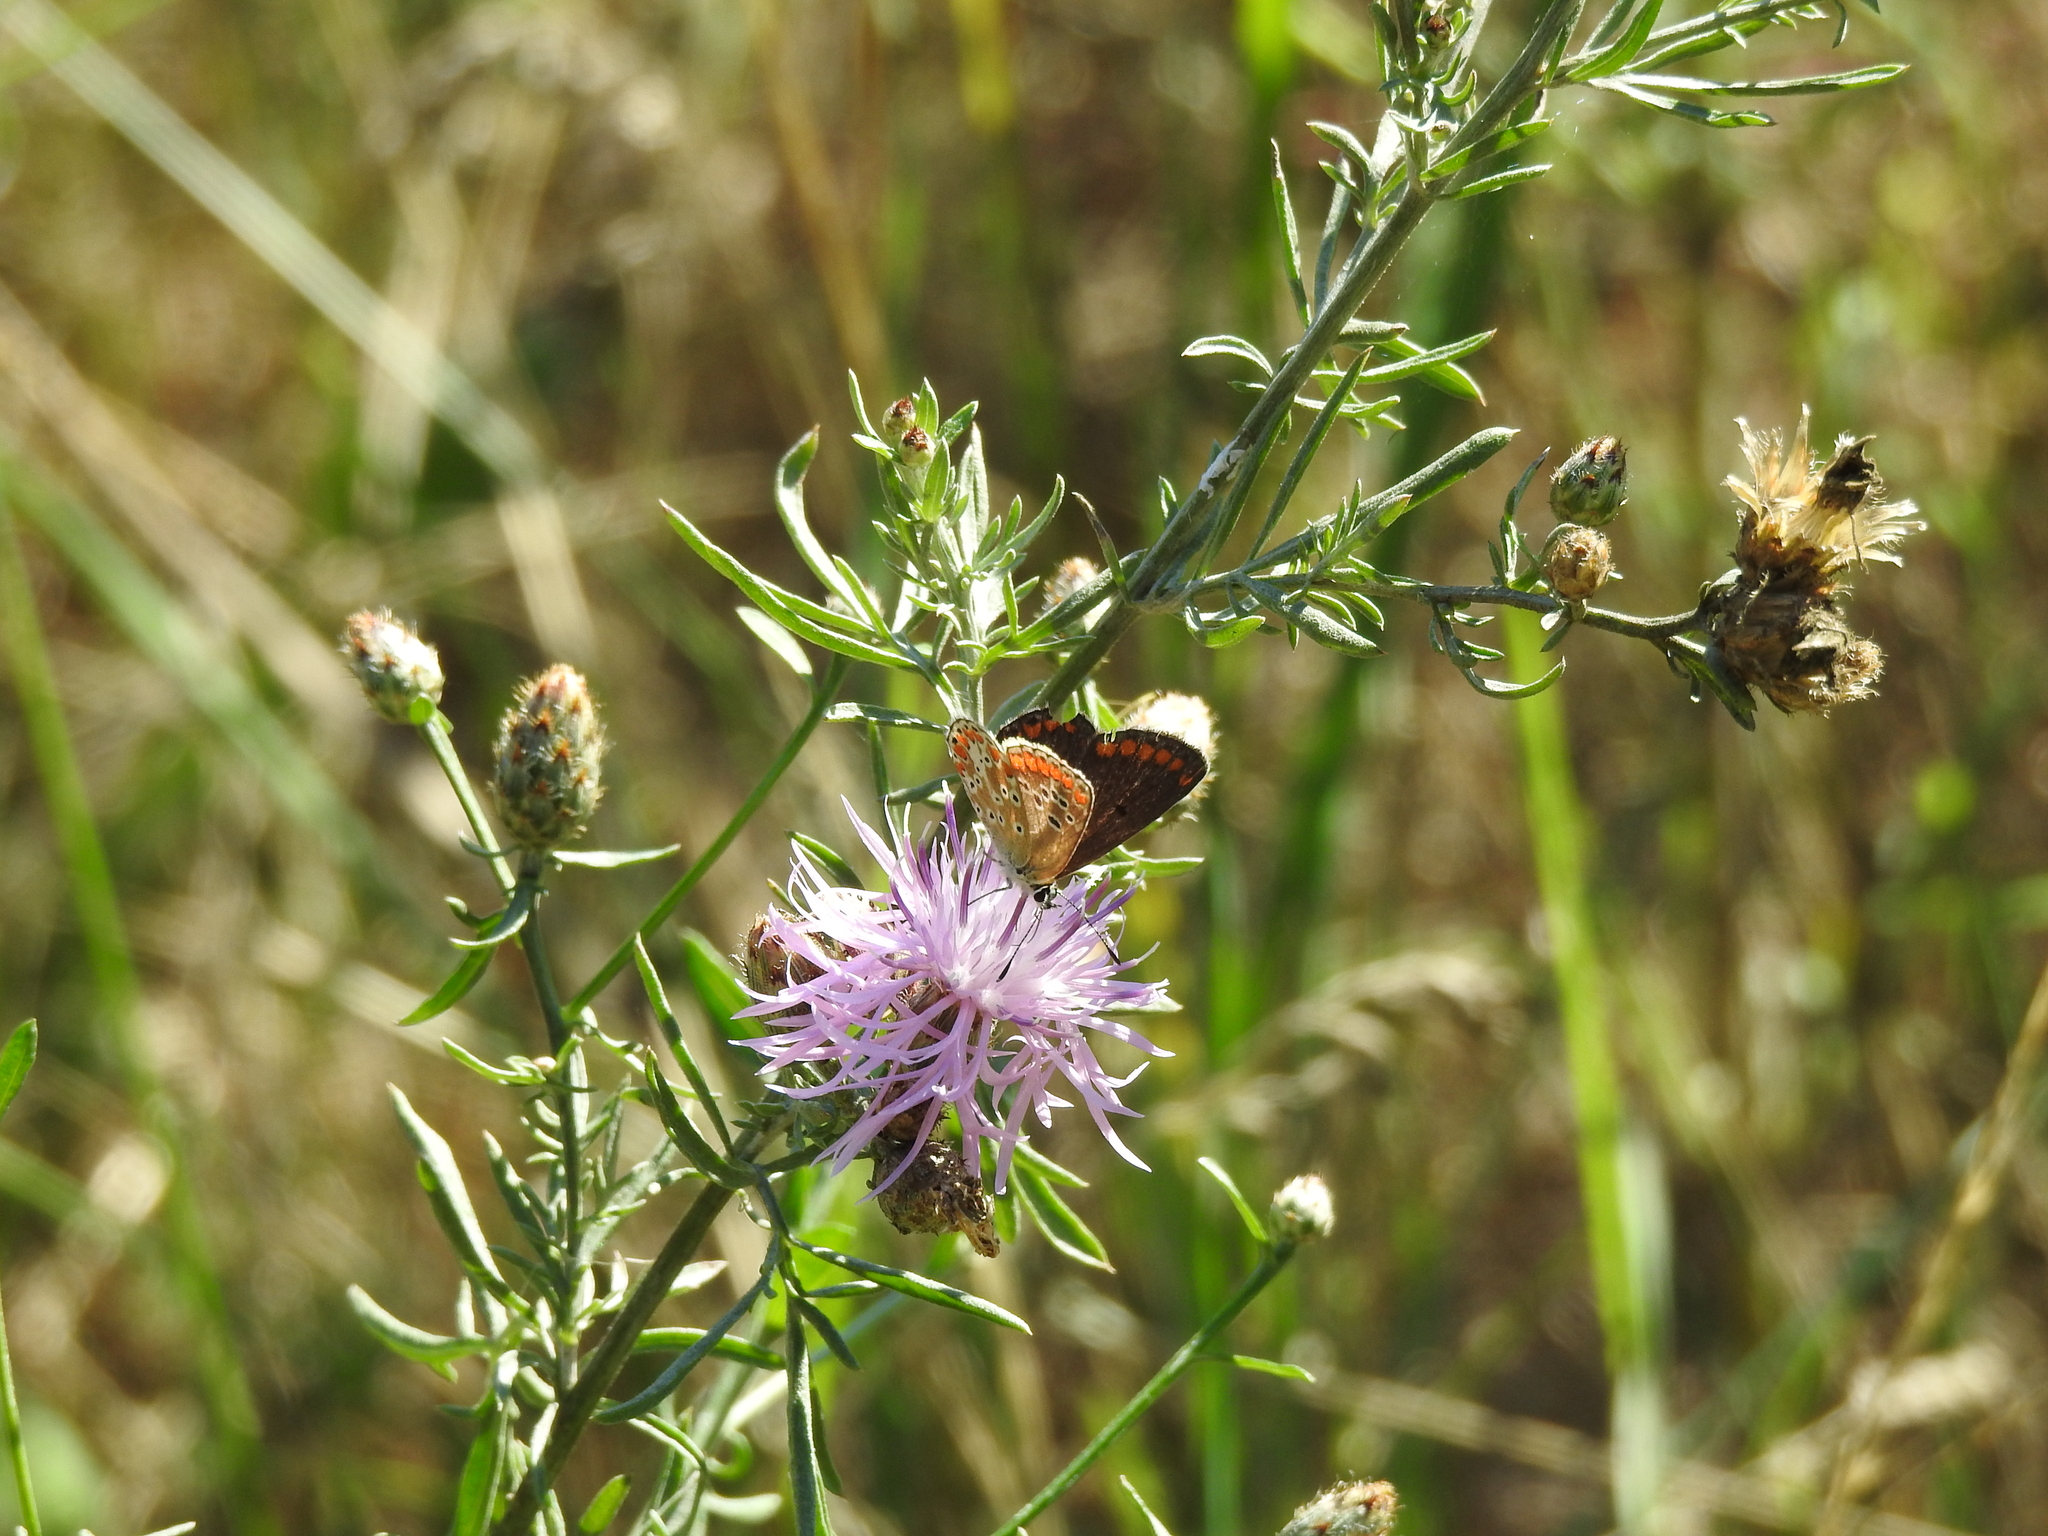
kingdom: Animalia
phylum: Arthropoda
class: Insecta
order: Lepidoptera
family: Lycaenidae
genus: Aricia
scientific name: Aricia agestis
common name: Brown argus
